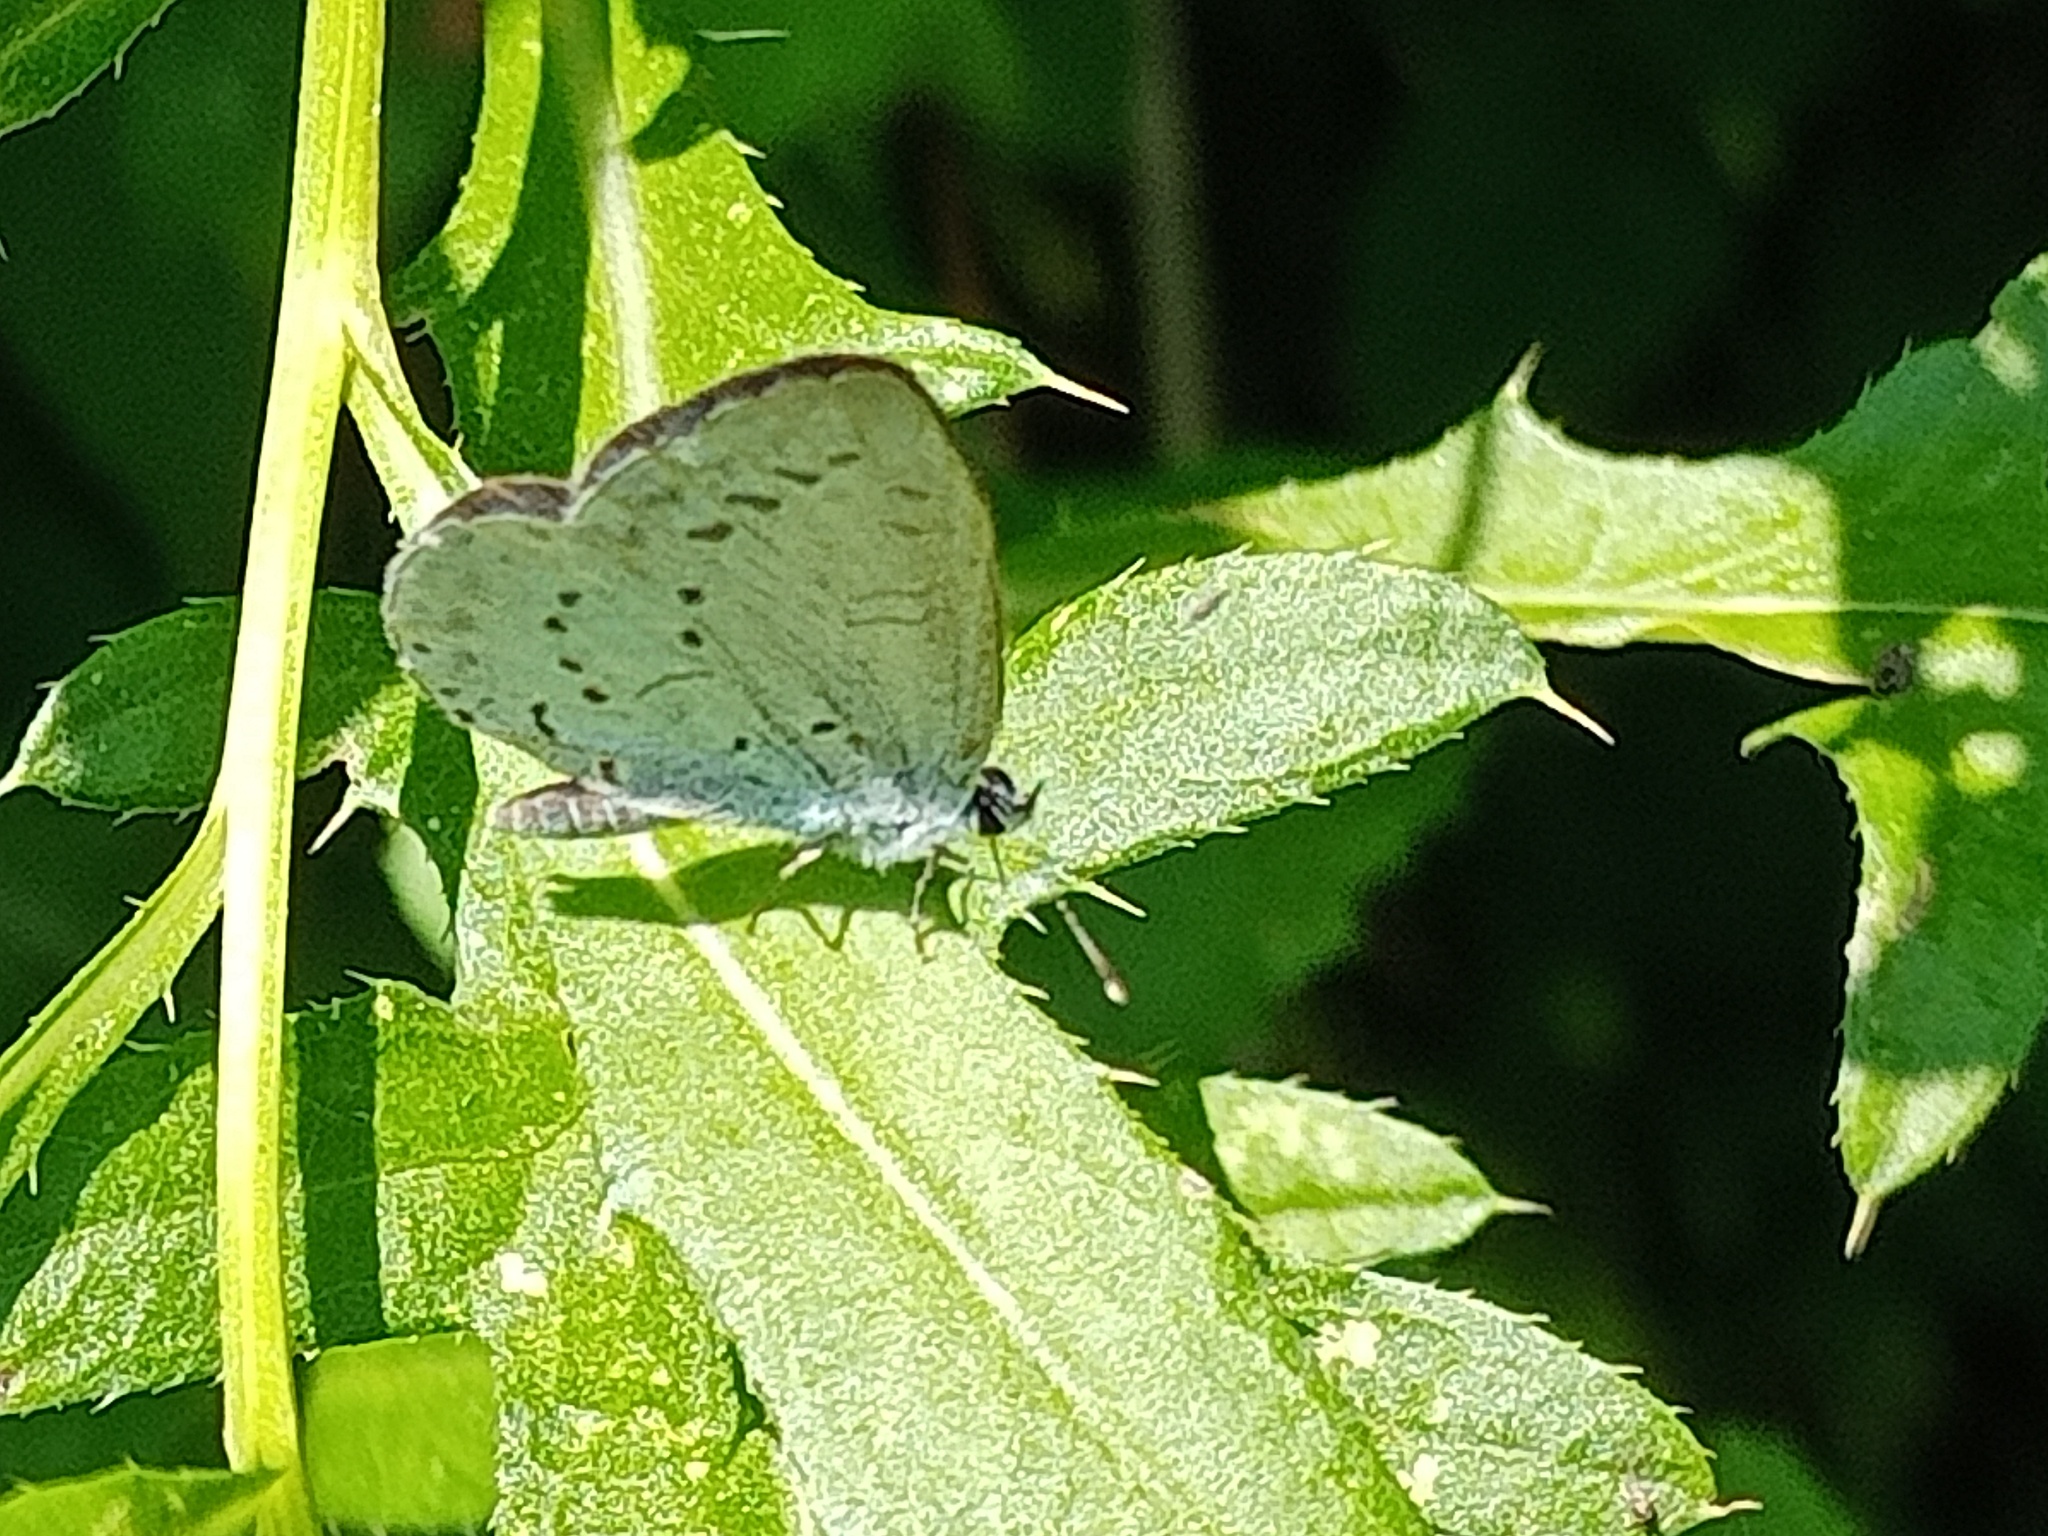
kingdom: Animalia
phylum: Arthropoda
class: Insecta
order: Lepidoptera
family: Lycaenidae
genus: Celastrina
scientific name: Celastrina argiolus
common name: Holly blue
